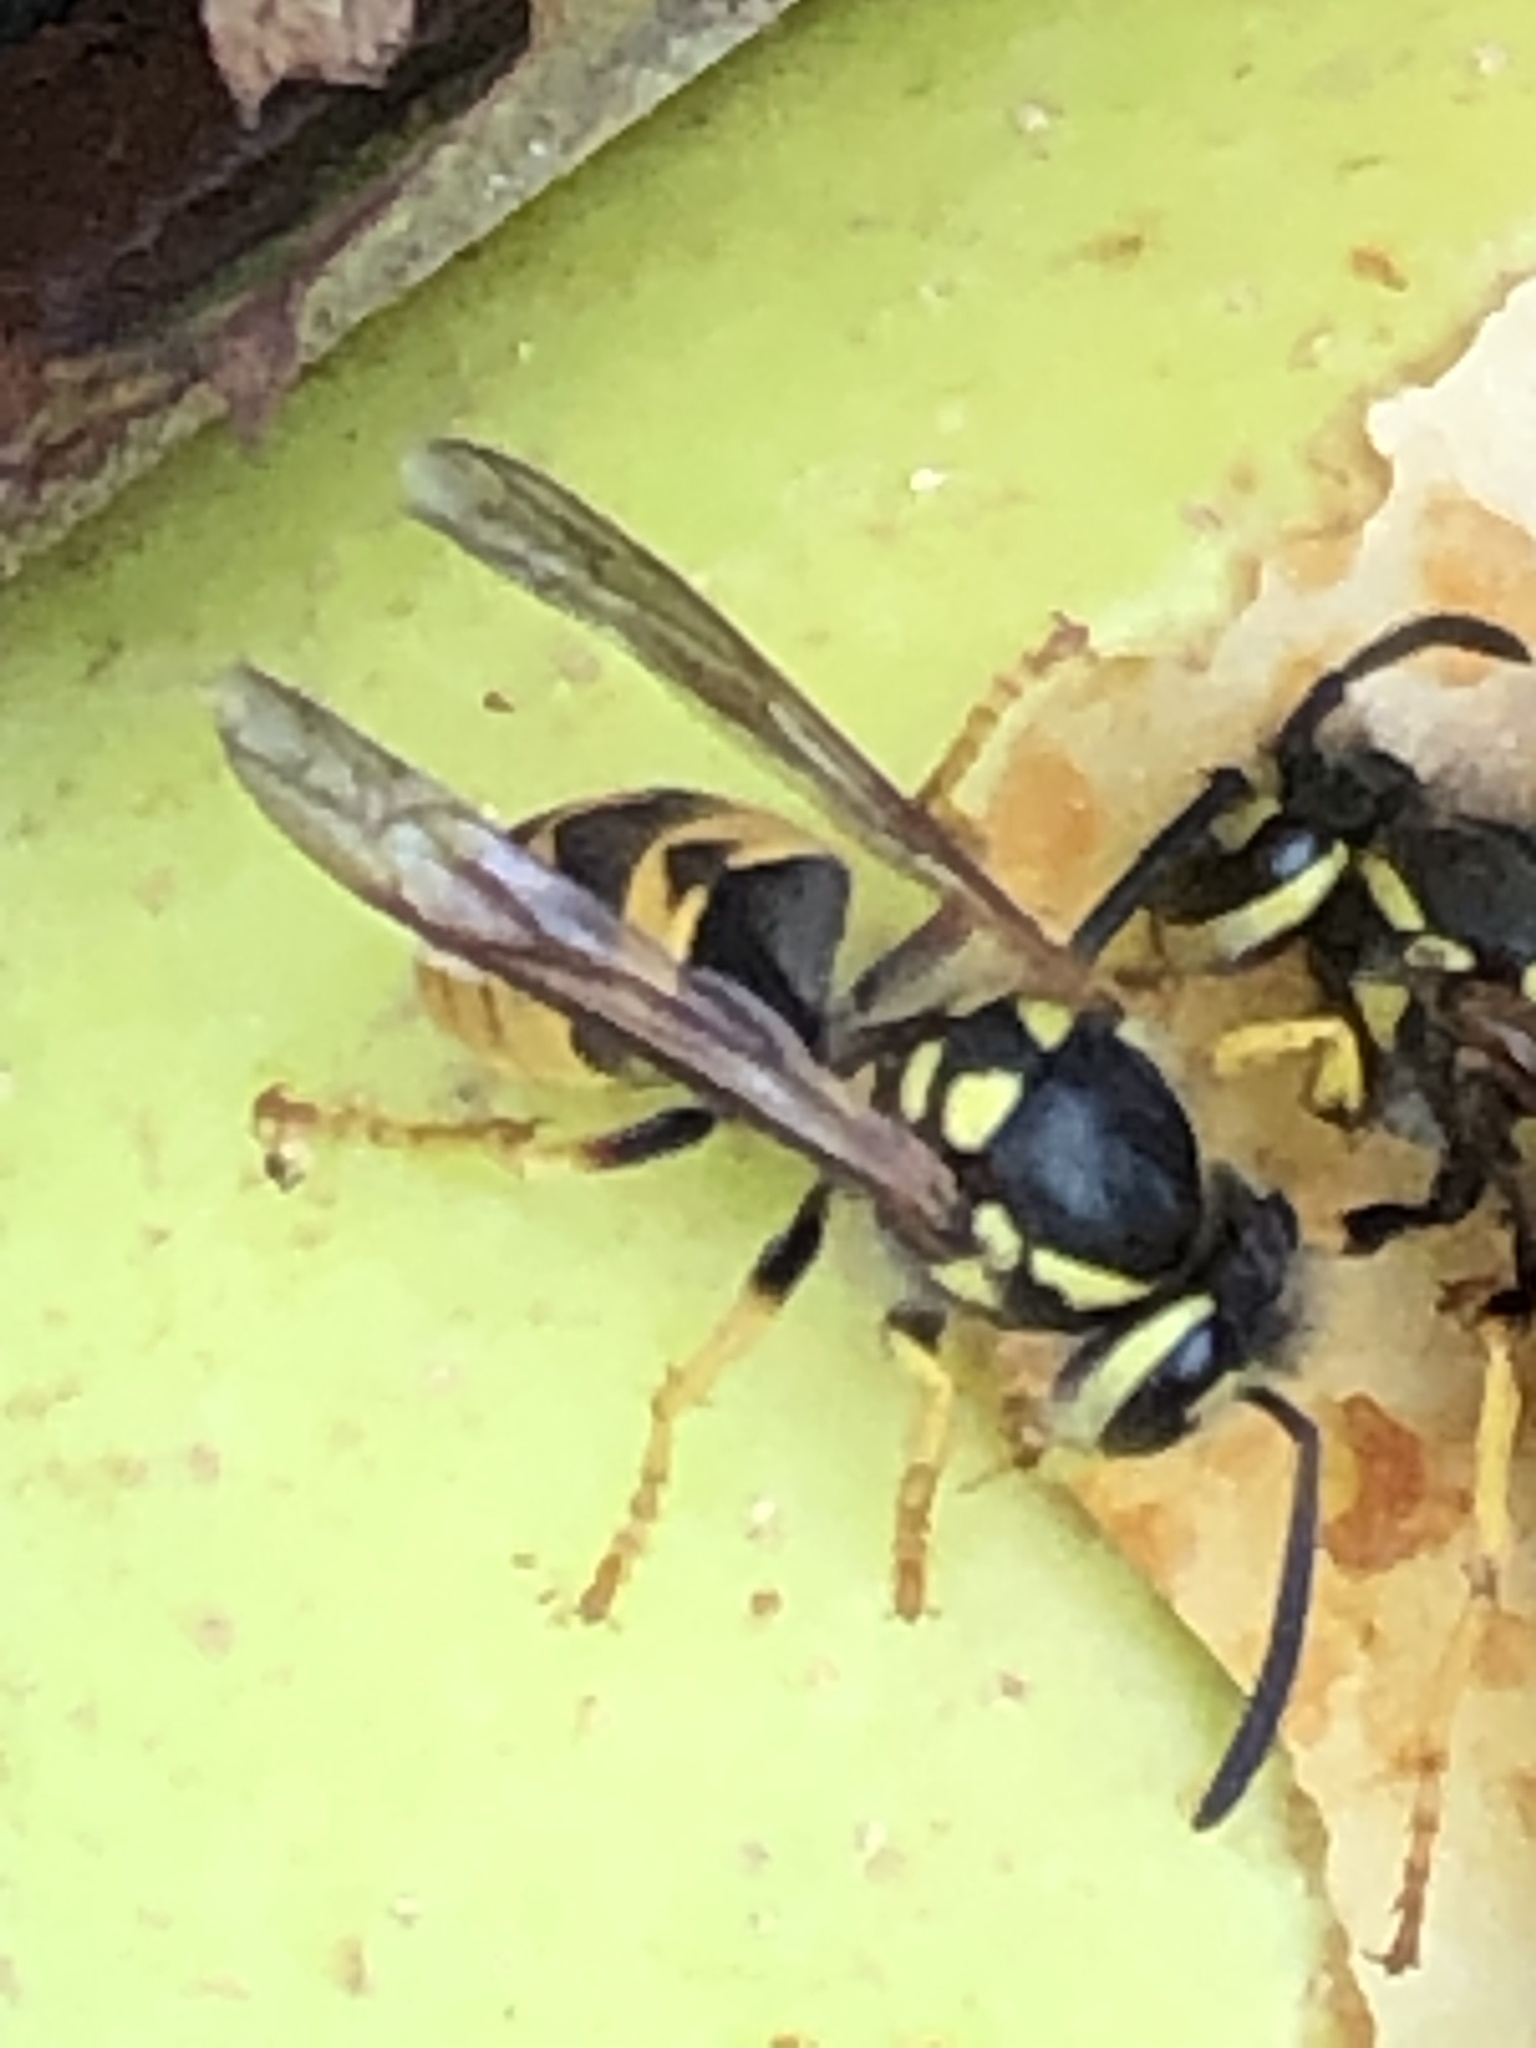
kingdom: Animalia
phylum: Arthropoda
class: Insecta
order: Hymenoptera
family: Vespidae
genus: Vespula
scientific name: Vespula germanica
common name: German wasp
